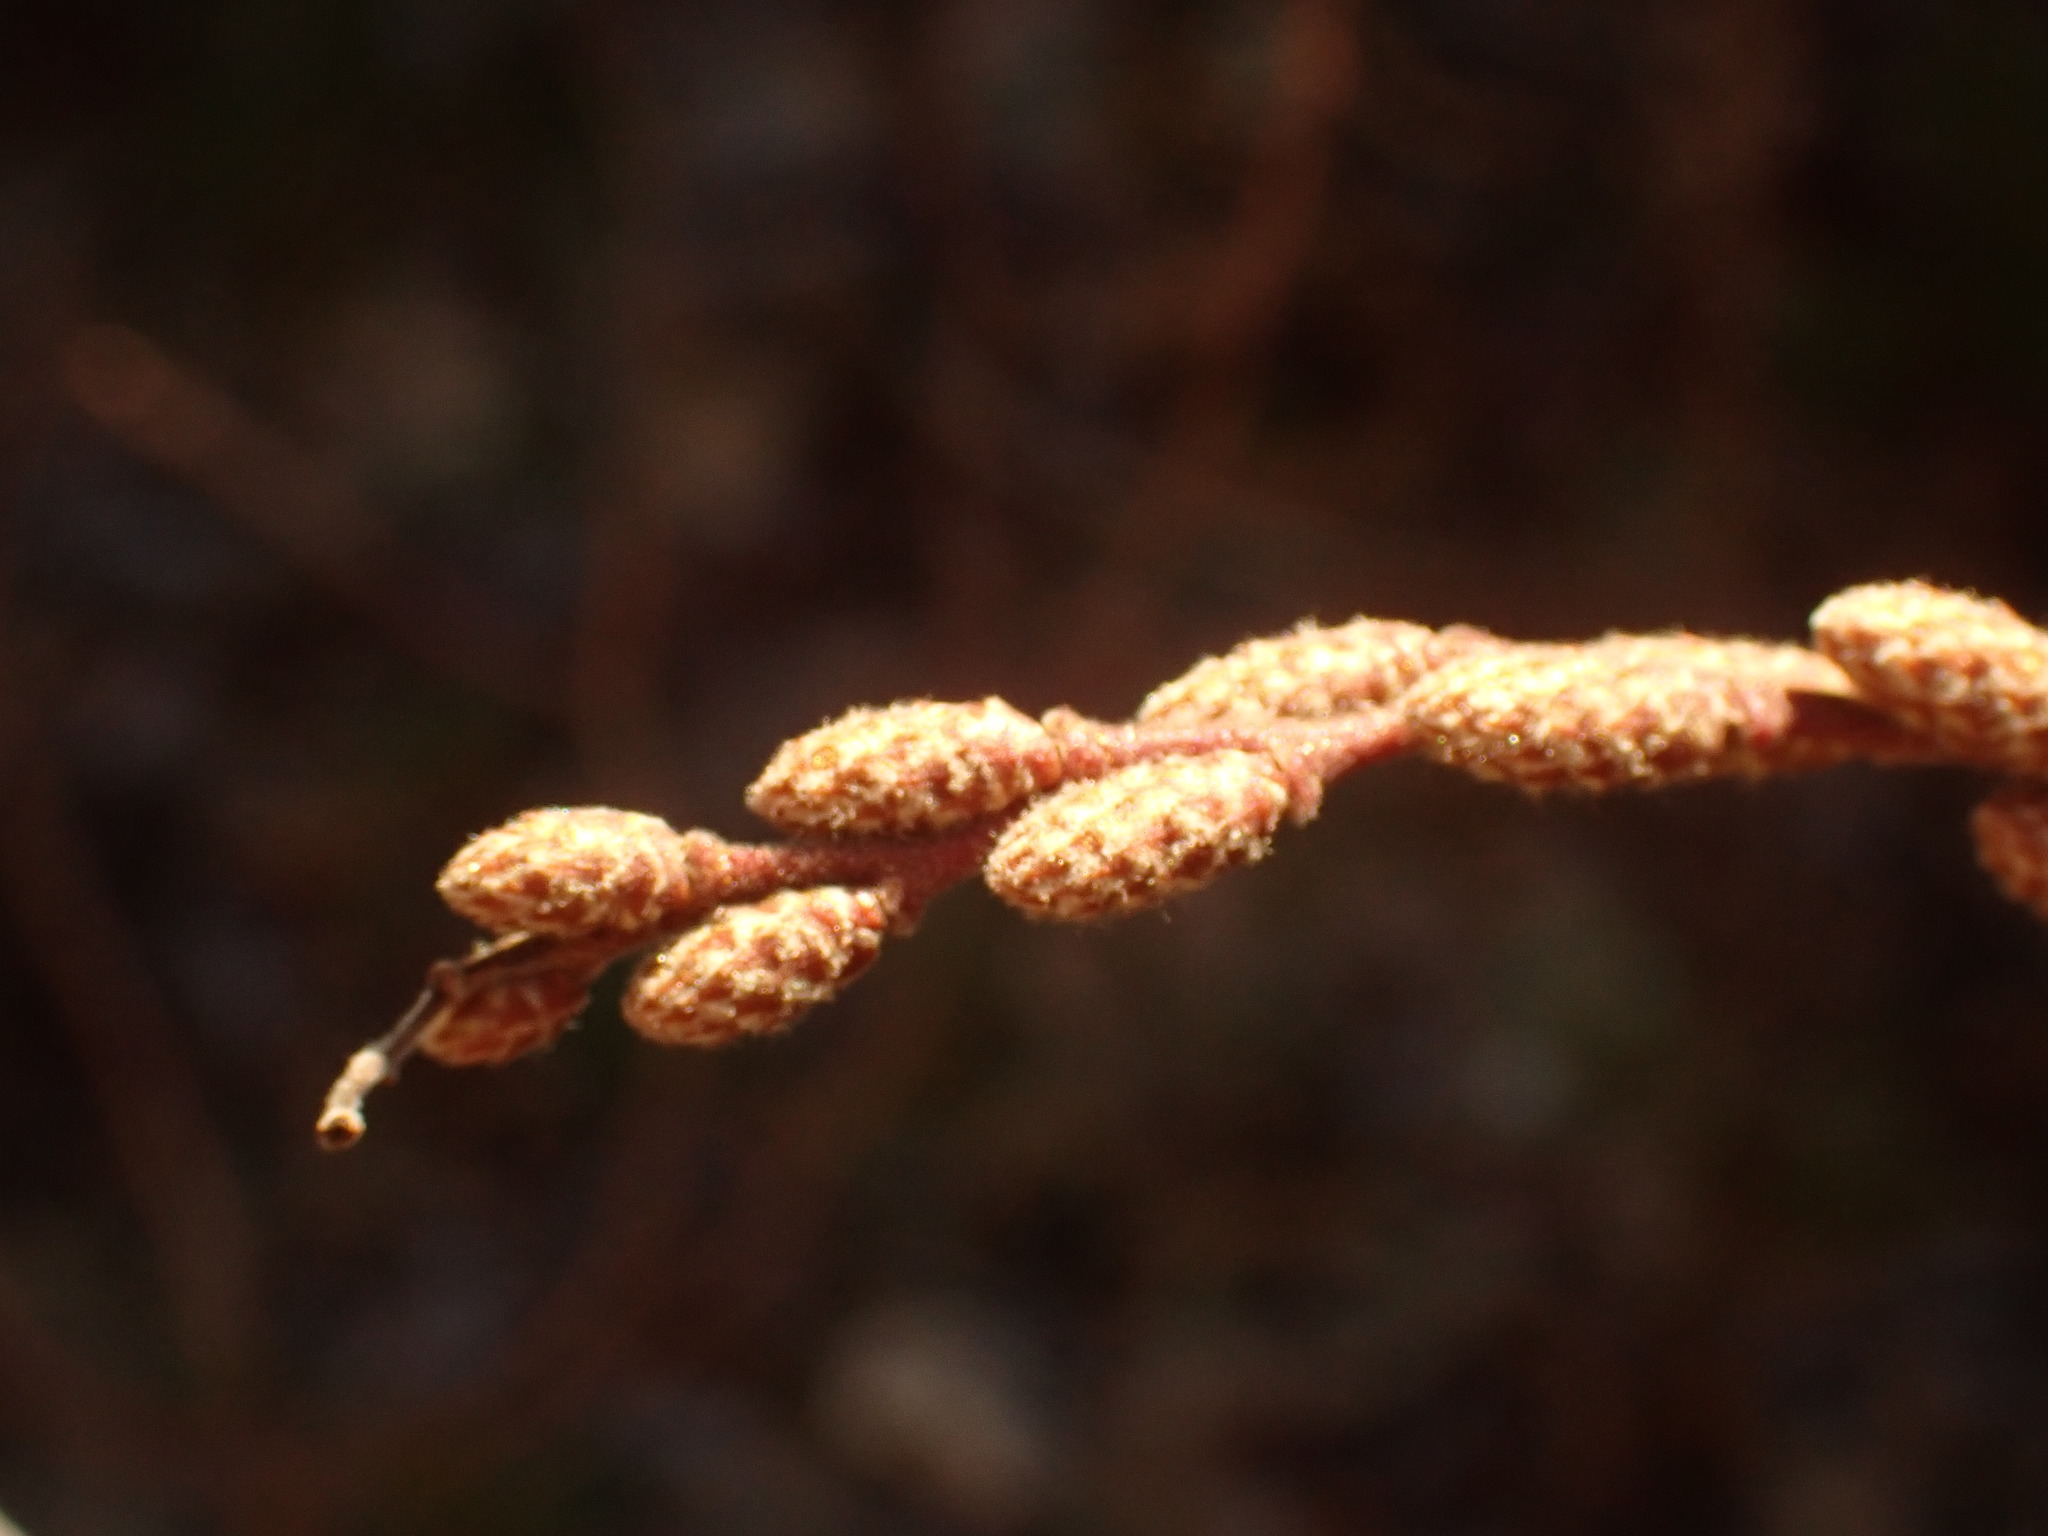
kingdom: Plantae
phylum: Tracheophyta
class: Magnoliopsida
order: Fagales
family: Myricaceae
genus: Comptonia
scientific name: Comptonia peregrina
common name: Sweet-fern
